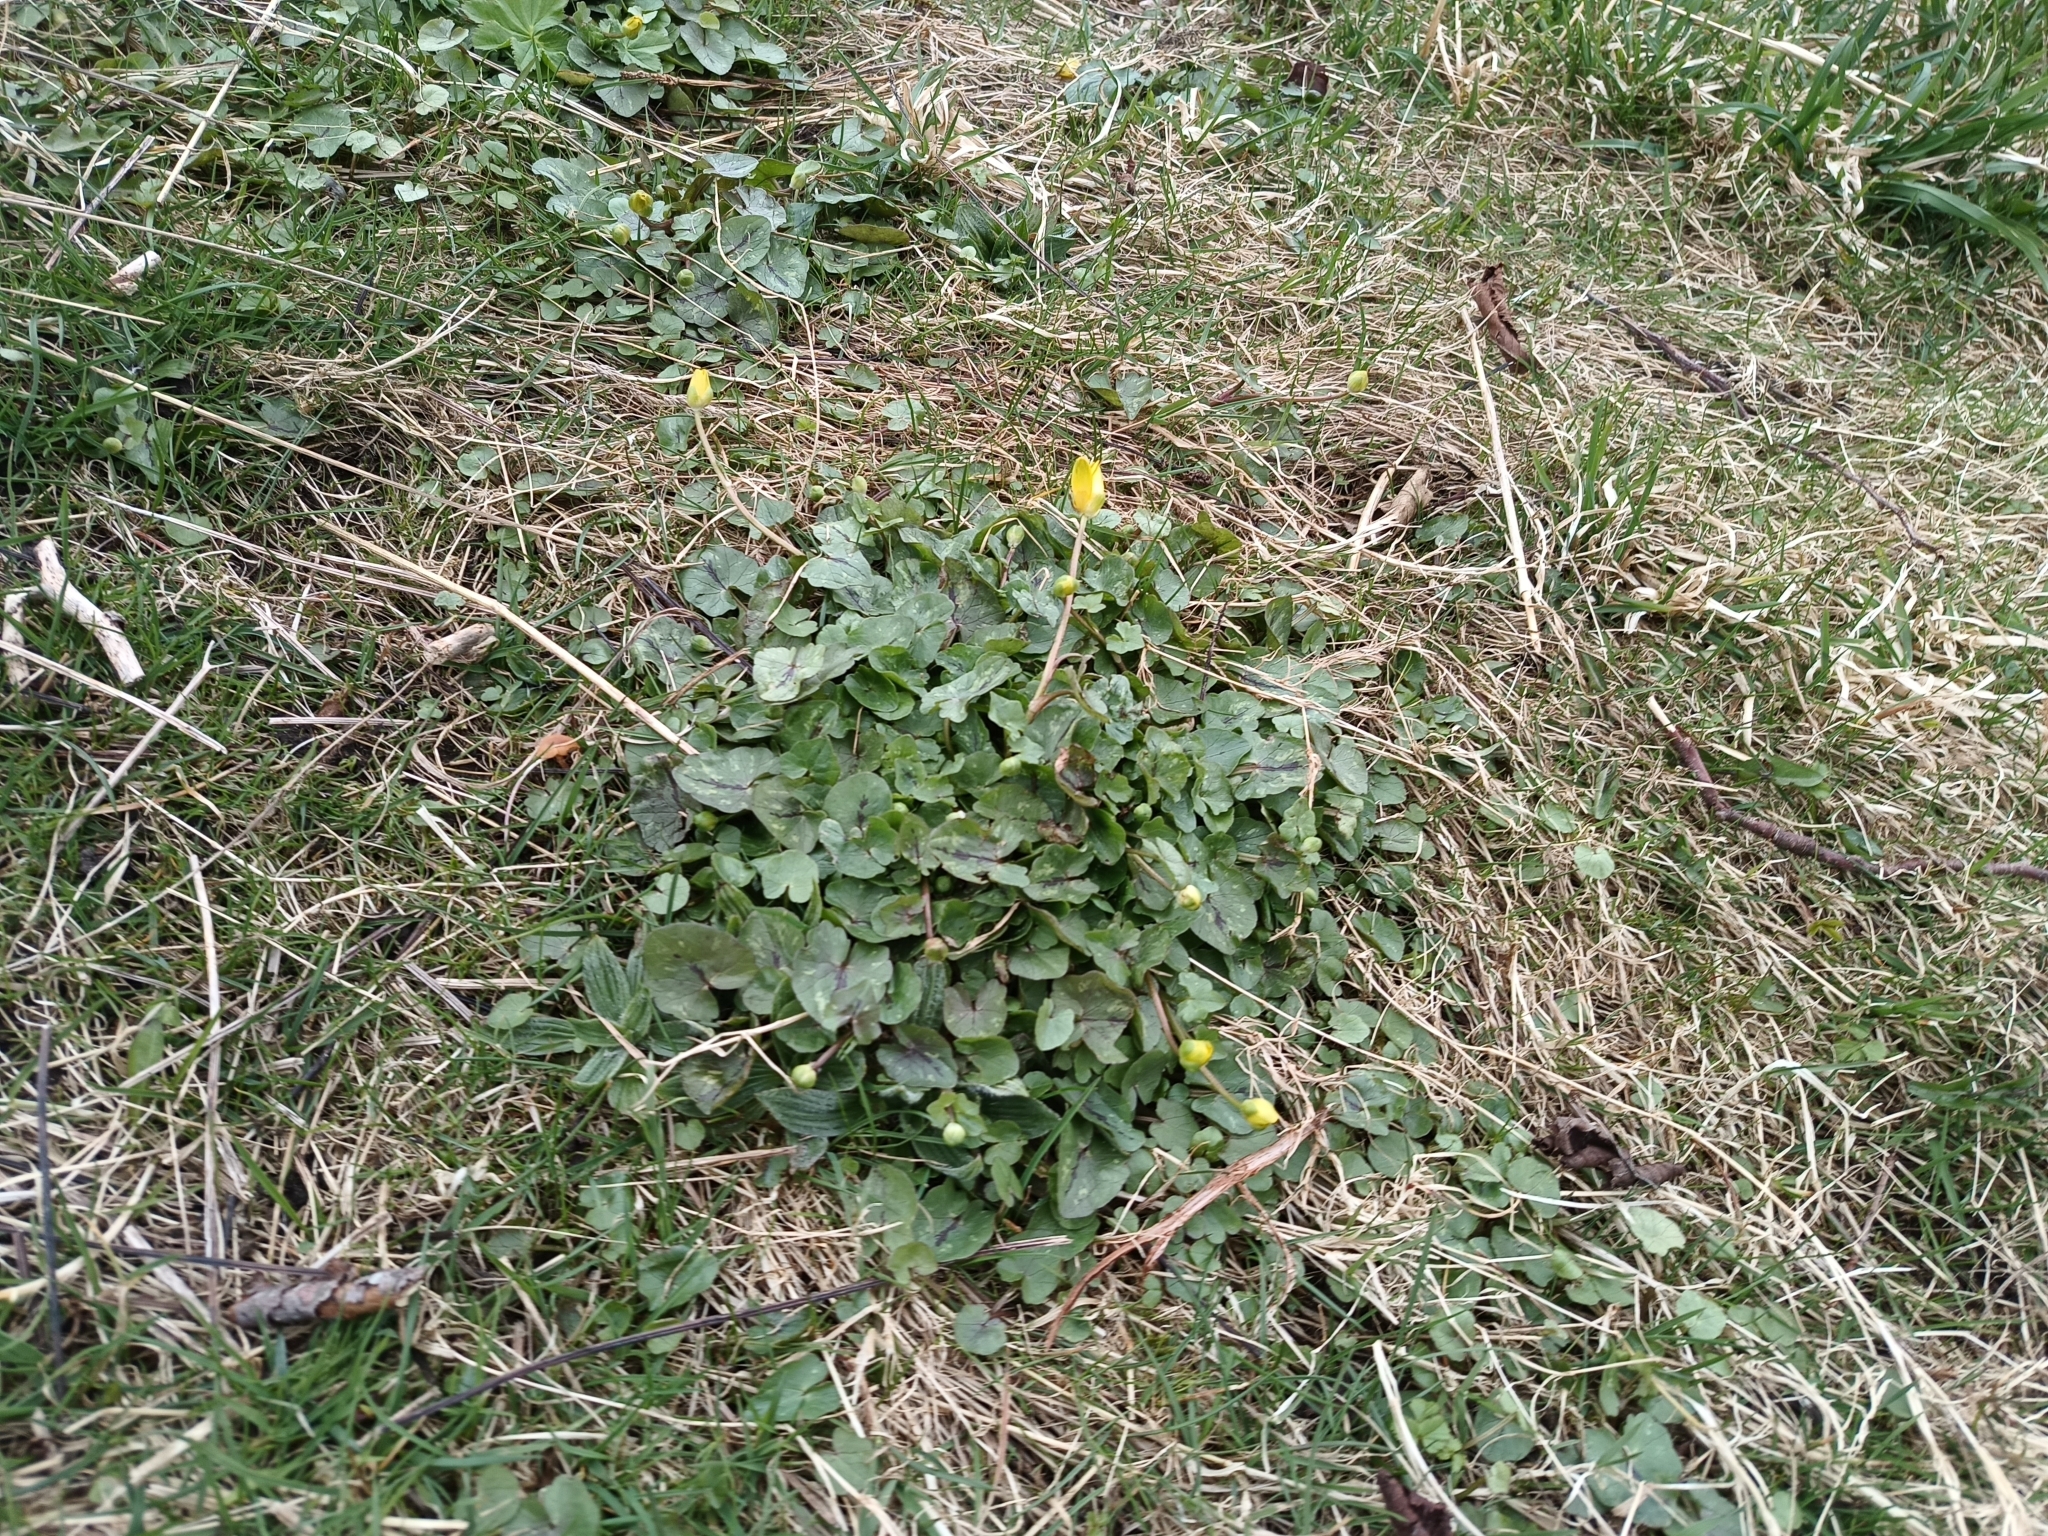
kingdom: Plantae
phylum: Tracheophyta
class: Magnoliopsida
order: Ranunculales
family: Ranunculaceae
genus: Ficaria
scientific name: Ficaria verna
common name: Lesser celandine
